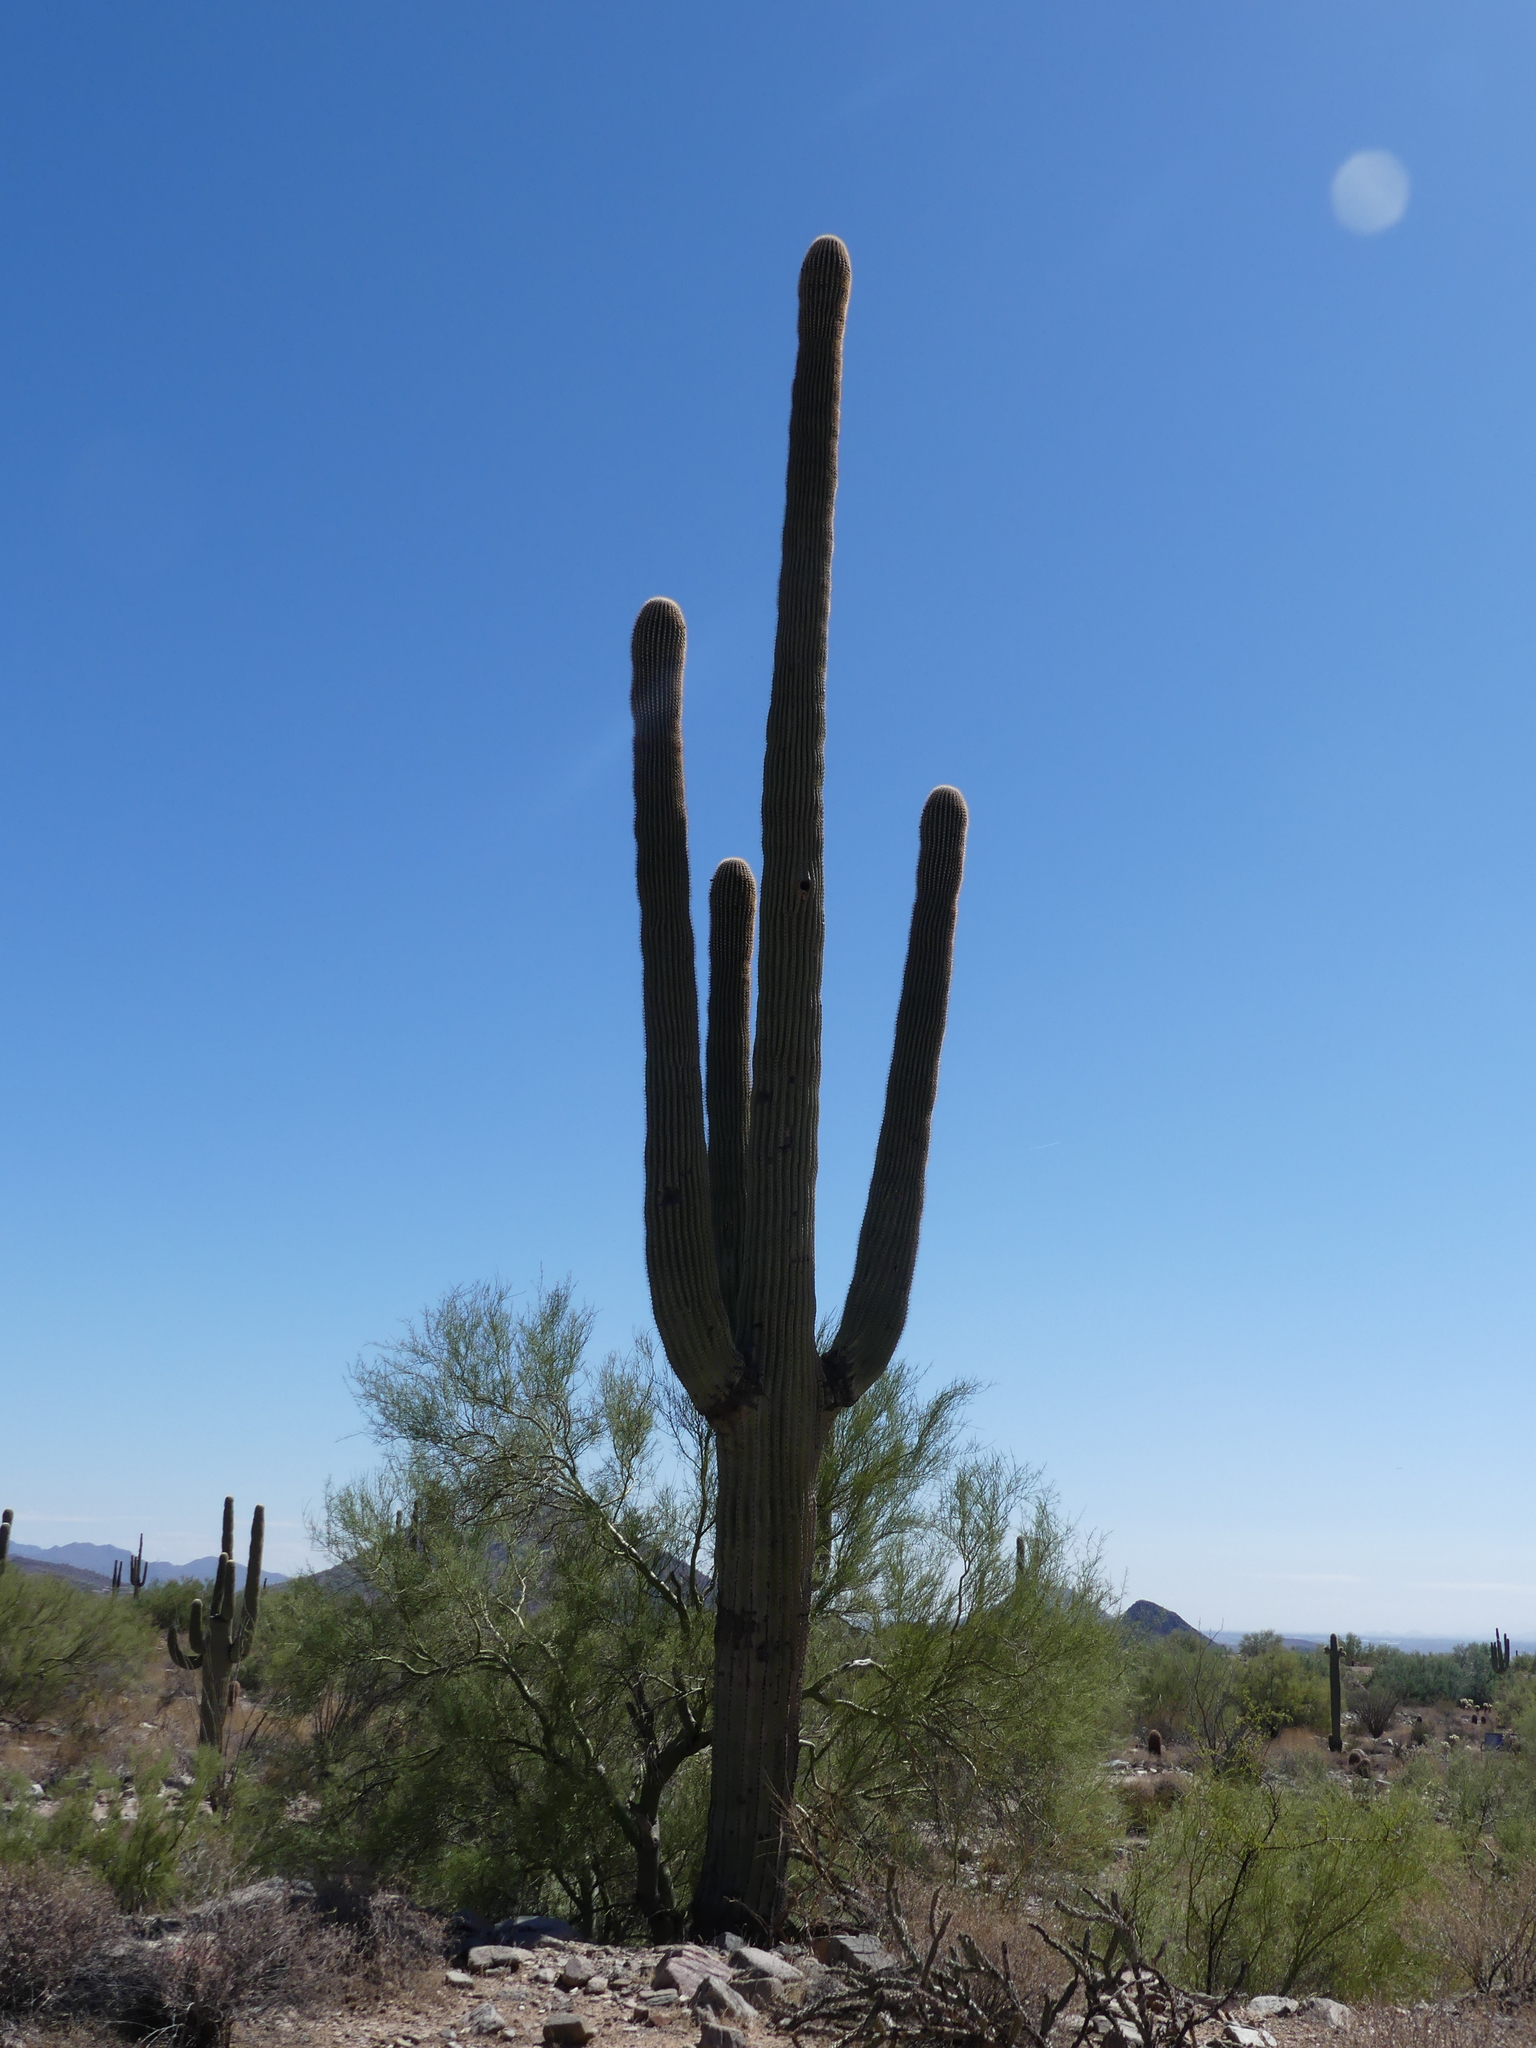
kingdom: Plantae
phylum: Tracheophyta
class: Magnoliopsida
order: Caryophyllales
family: Cactaceae
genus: Carnegiea
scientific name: Carnegiea gigantea
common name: Saguaro
